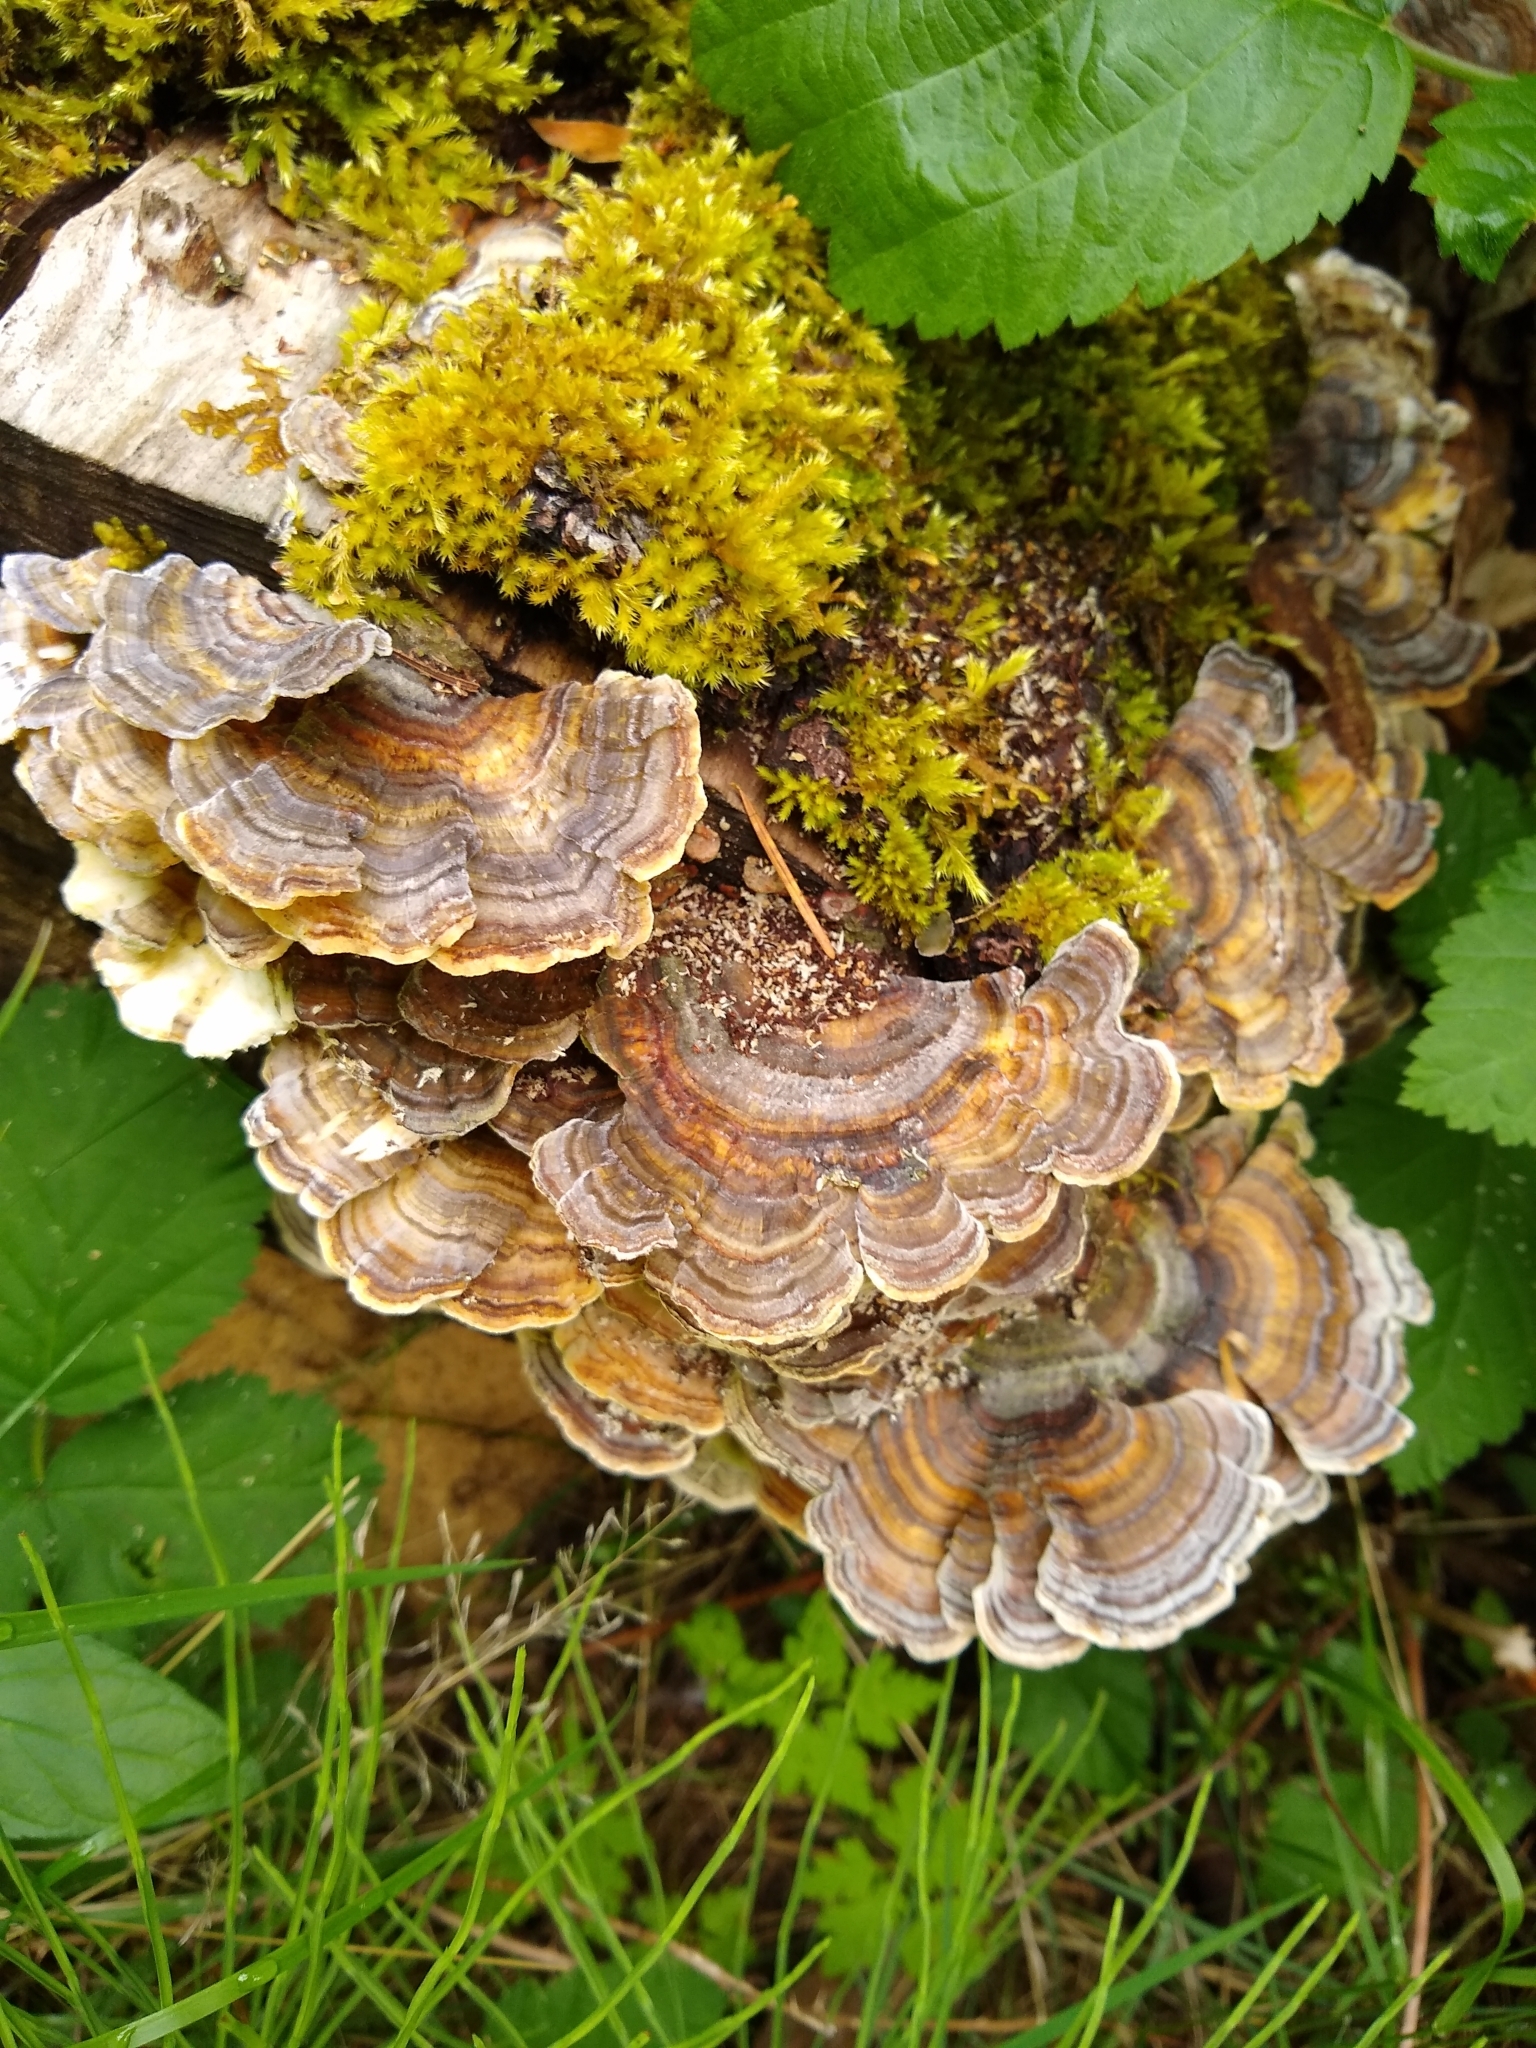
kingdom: Fungi
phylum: Basidiomycota
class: Agaricomycetes
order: Polyporales
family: Polyporaceae
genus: Trametes
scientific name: Trametes versicolor
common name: Turkeytail
